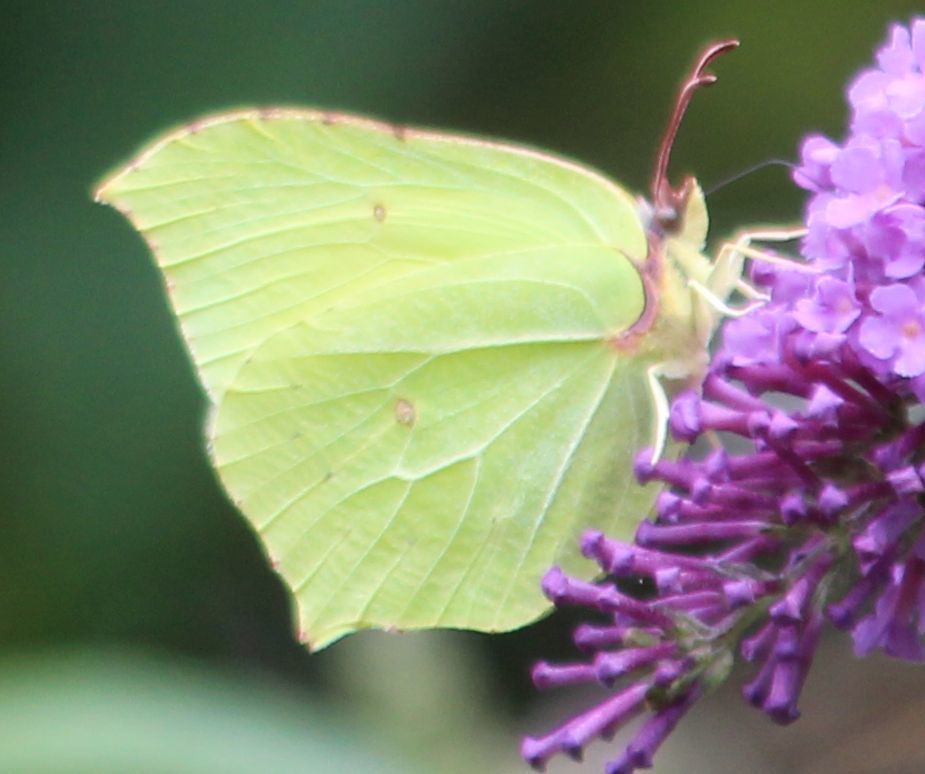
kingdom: Animalia
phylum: Arthropoda
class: Insecta
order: Lepidoptera
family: Pieridae
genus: Gonepteryx
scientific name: Gonepteryx rhamni
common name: Brimstone
